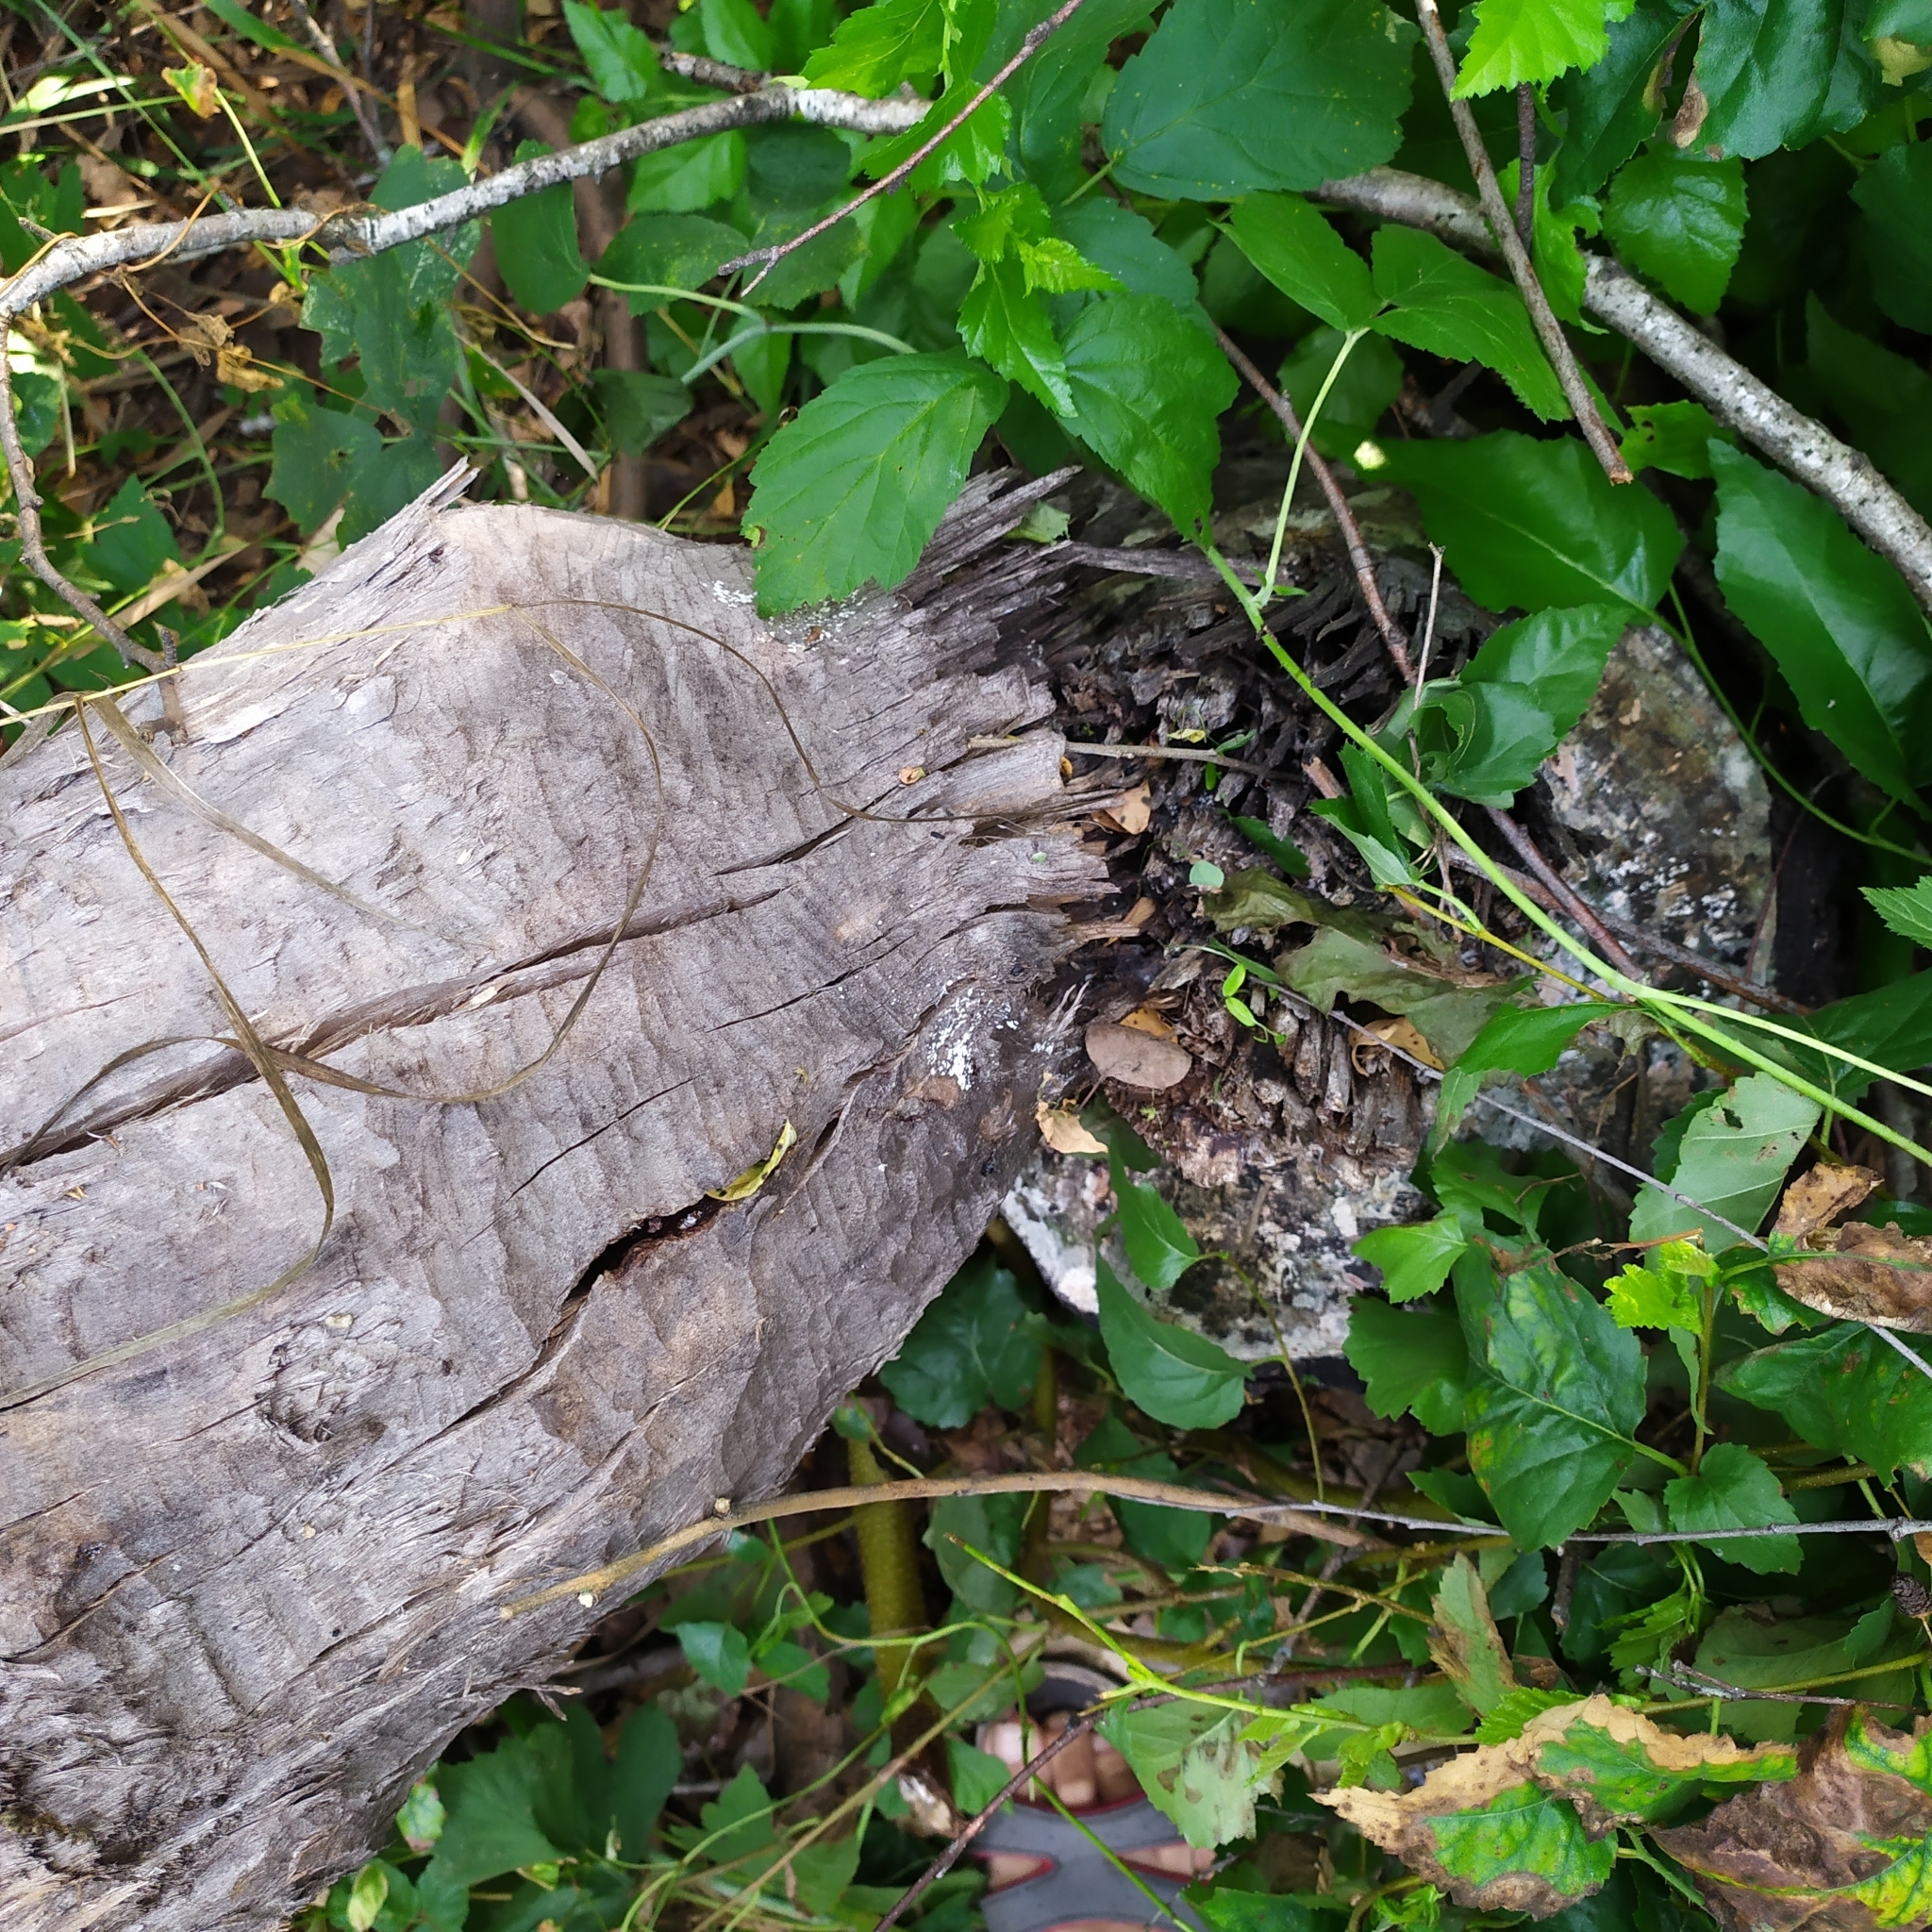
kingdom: Animalia
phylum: Chordata
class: Mammalia
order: Rodentia
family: Castoridae
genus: Castor
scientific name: Castor fiber
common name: Eurasian beaver
